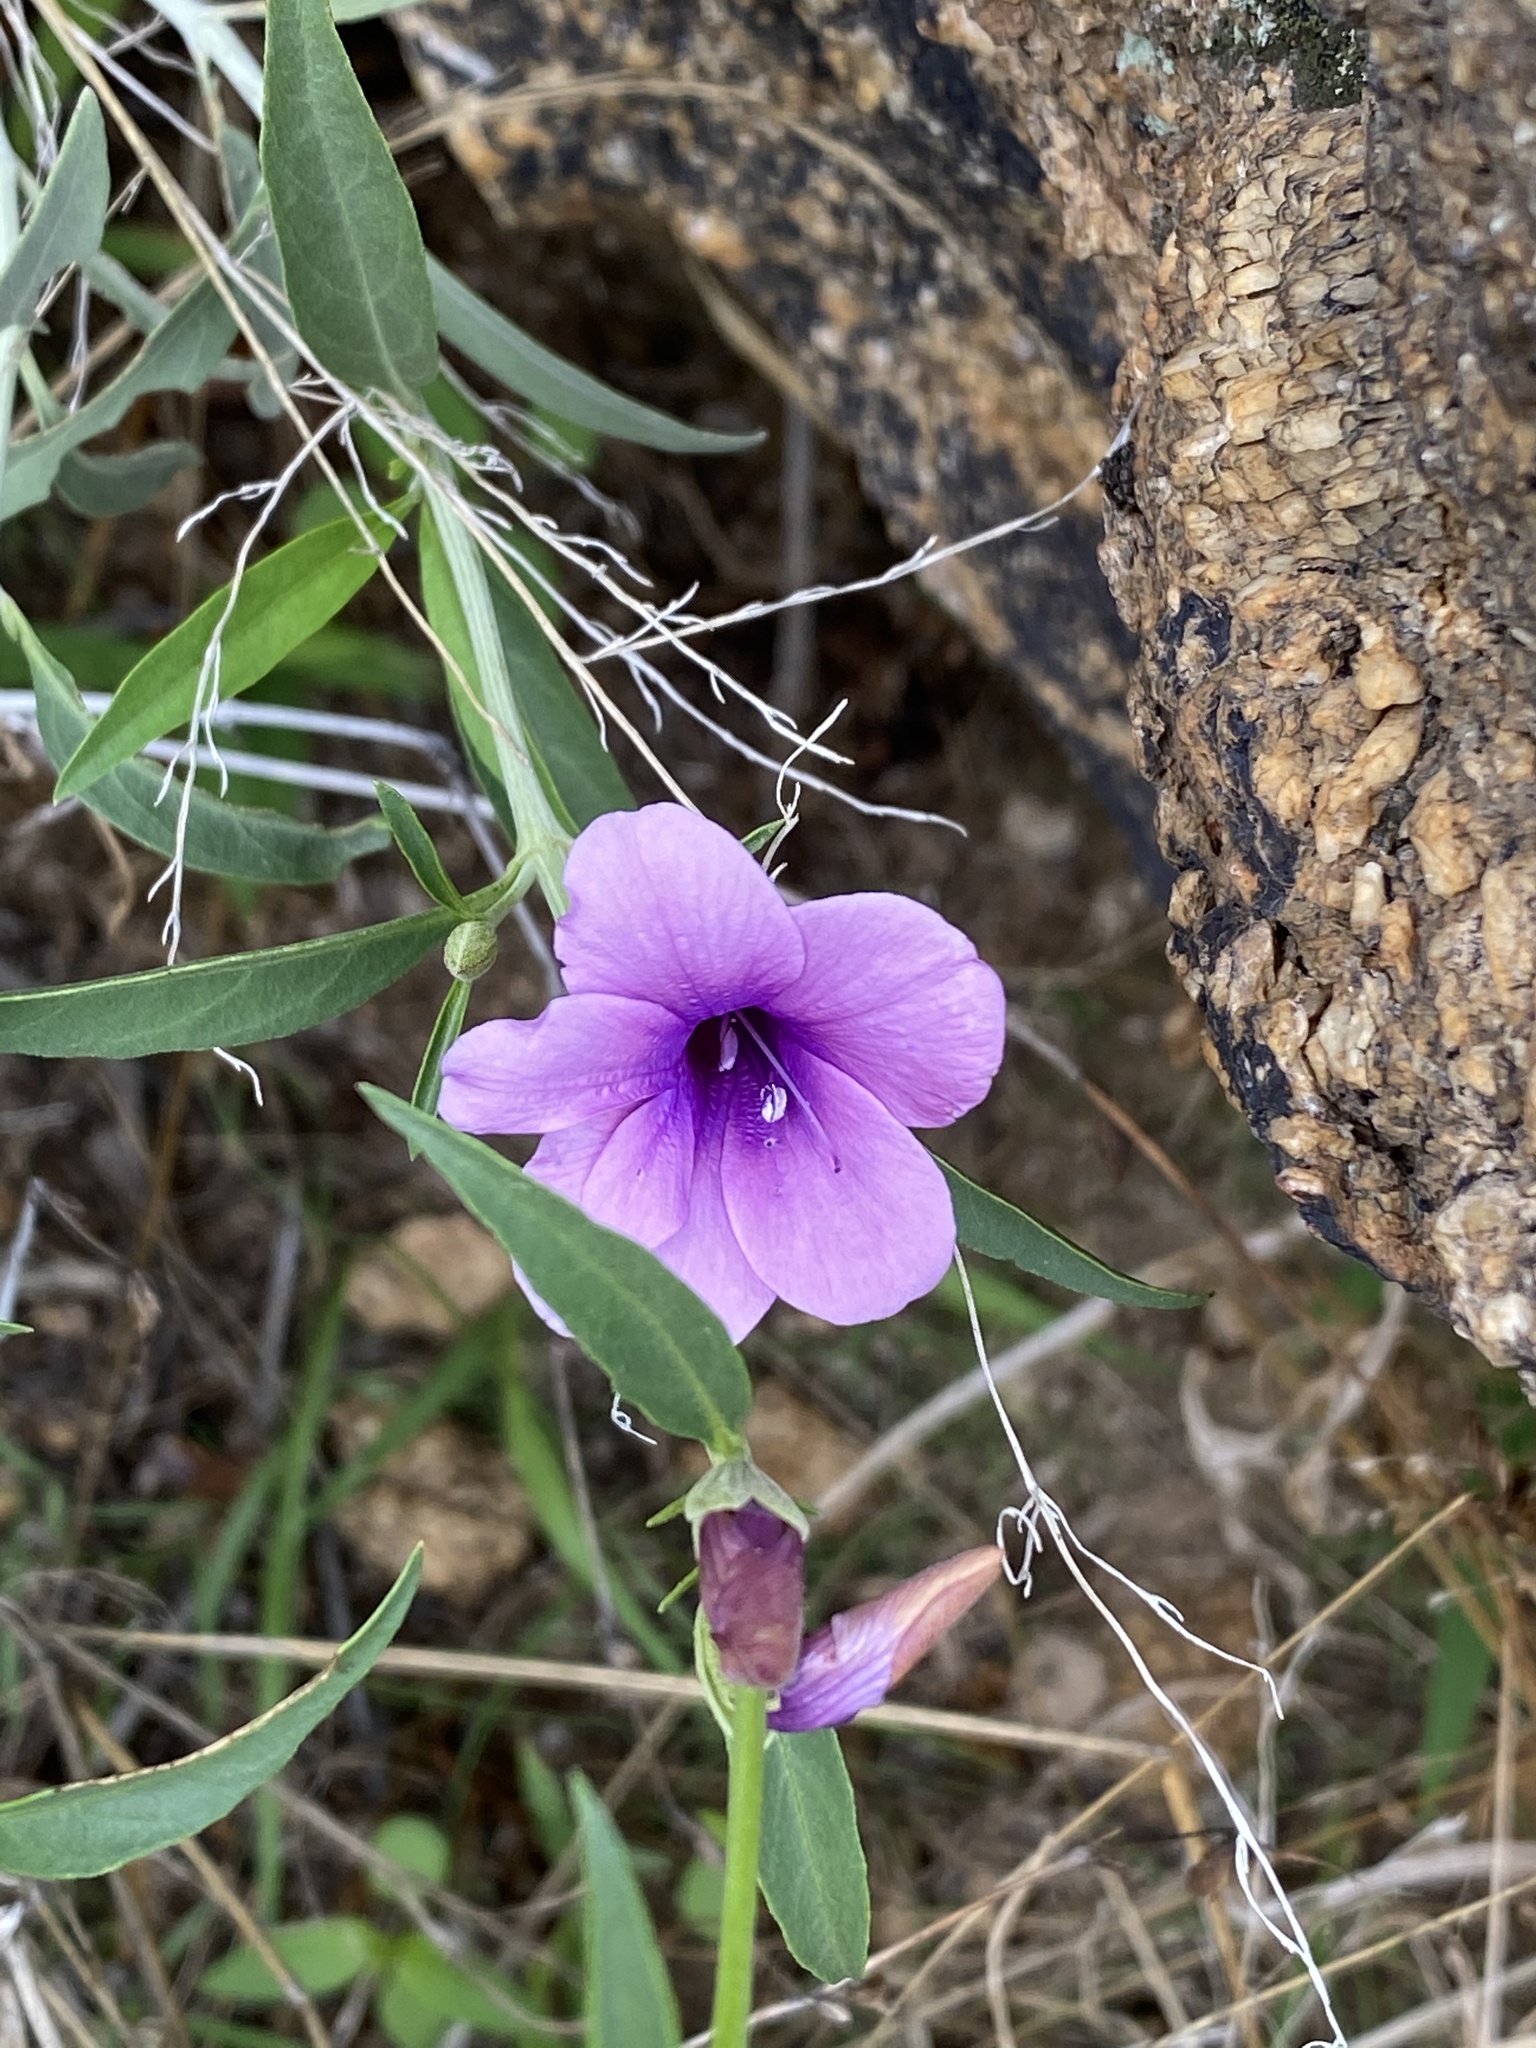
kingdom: Plantae
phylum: Tracheophyta
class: Magnoliopsida
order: Lamiales
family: Acanthaceae
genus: Barleria
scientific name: Barleria lancifolia
